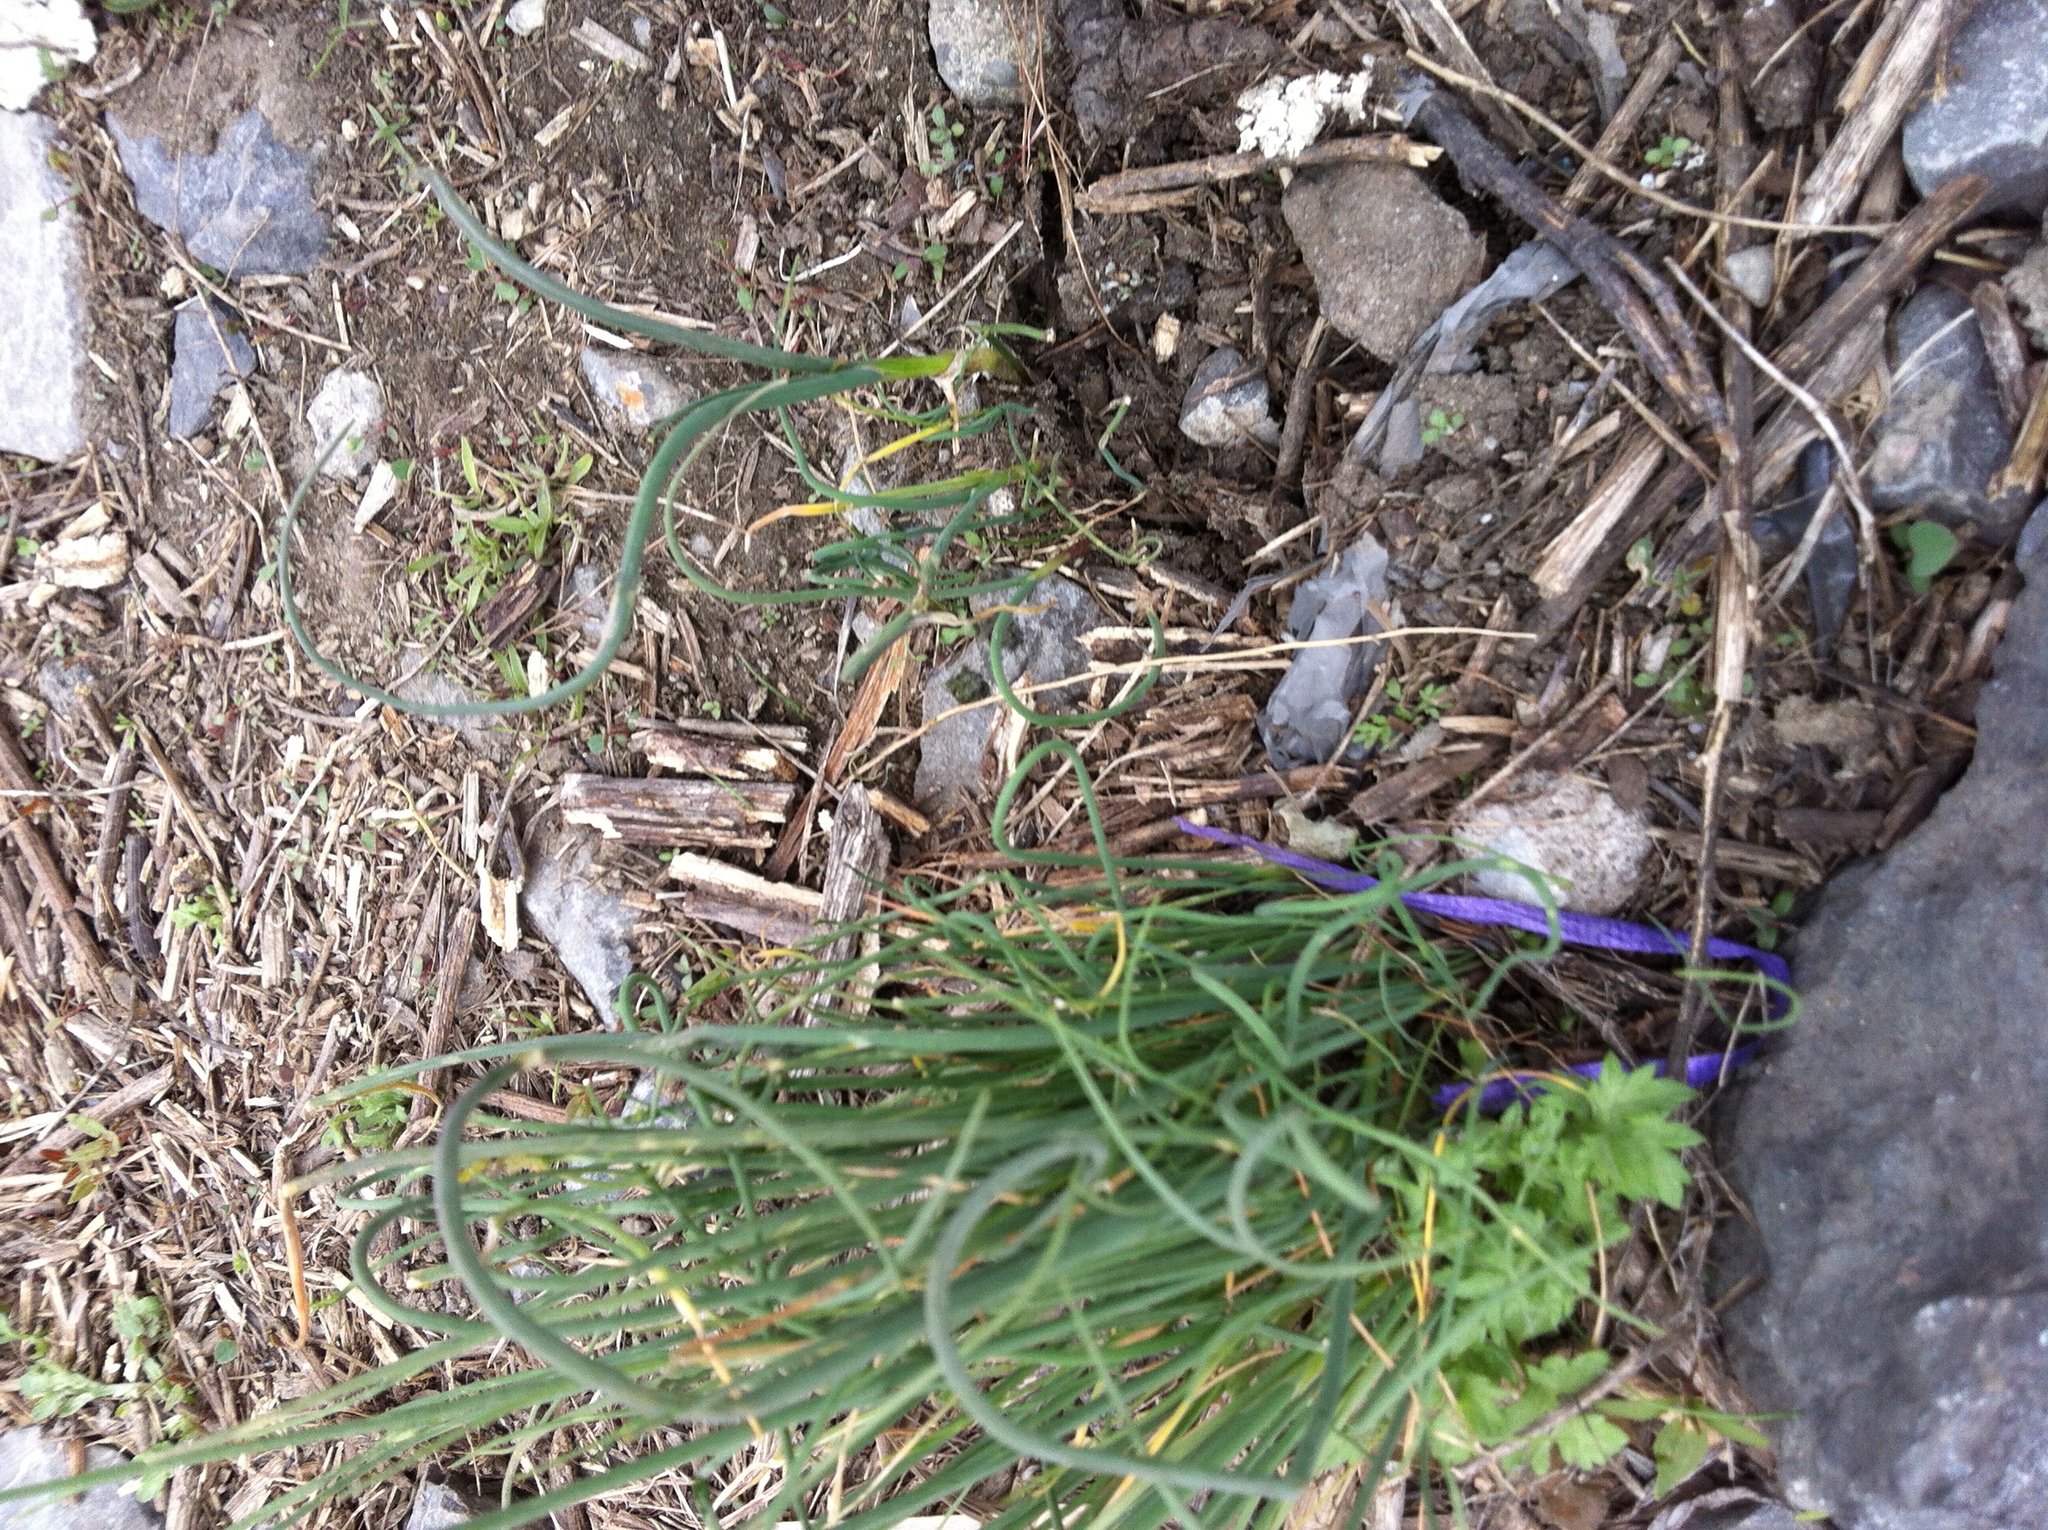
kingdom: Plantae
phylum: Tracheophyta
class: Liliopsida
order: Asparagales
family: Amaryllidaceae
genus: Allium
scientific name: Allium vineale
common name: Crow garlic
